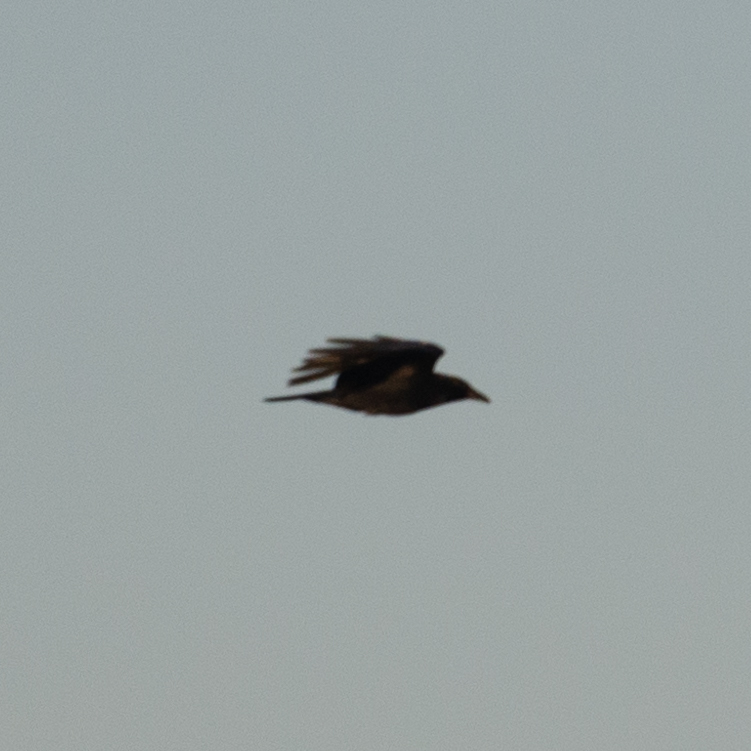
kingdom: Animalia
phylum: Chordata
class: Aves
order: Passeriformes
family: Corvidae
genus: Corvus
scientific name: Corvus corone
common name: Carrion crow
